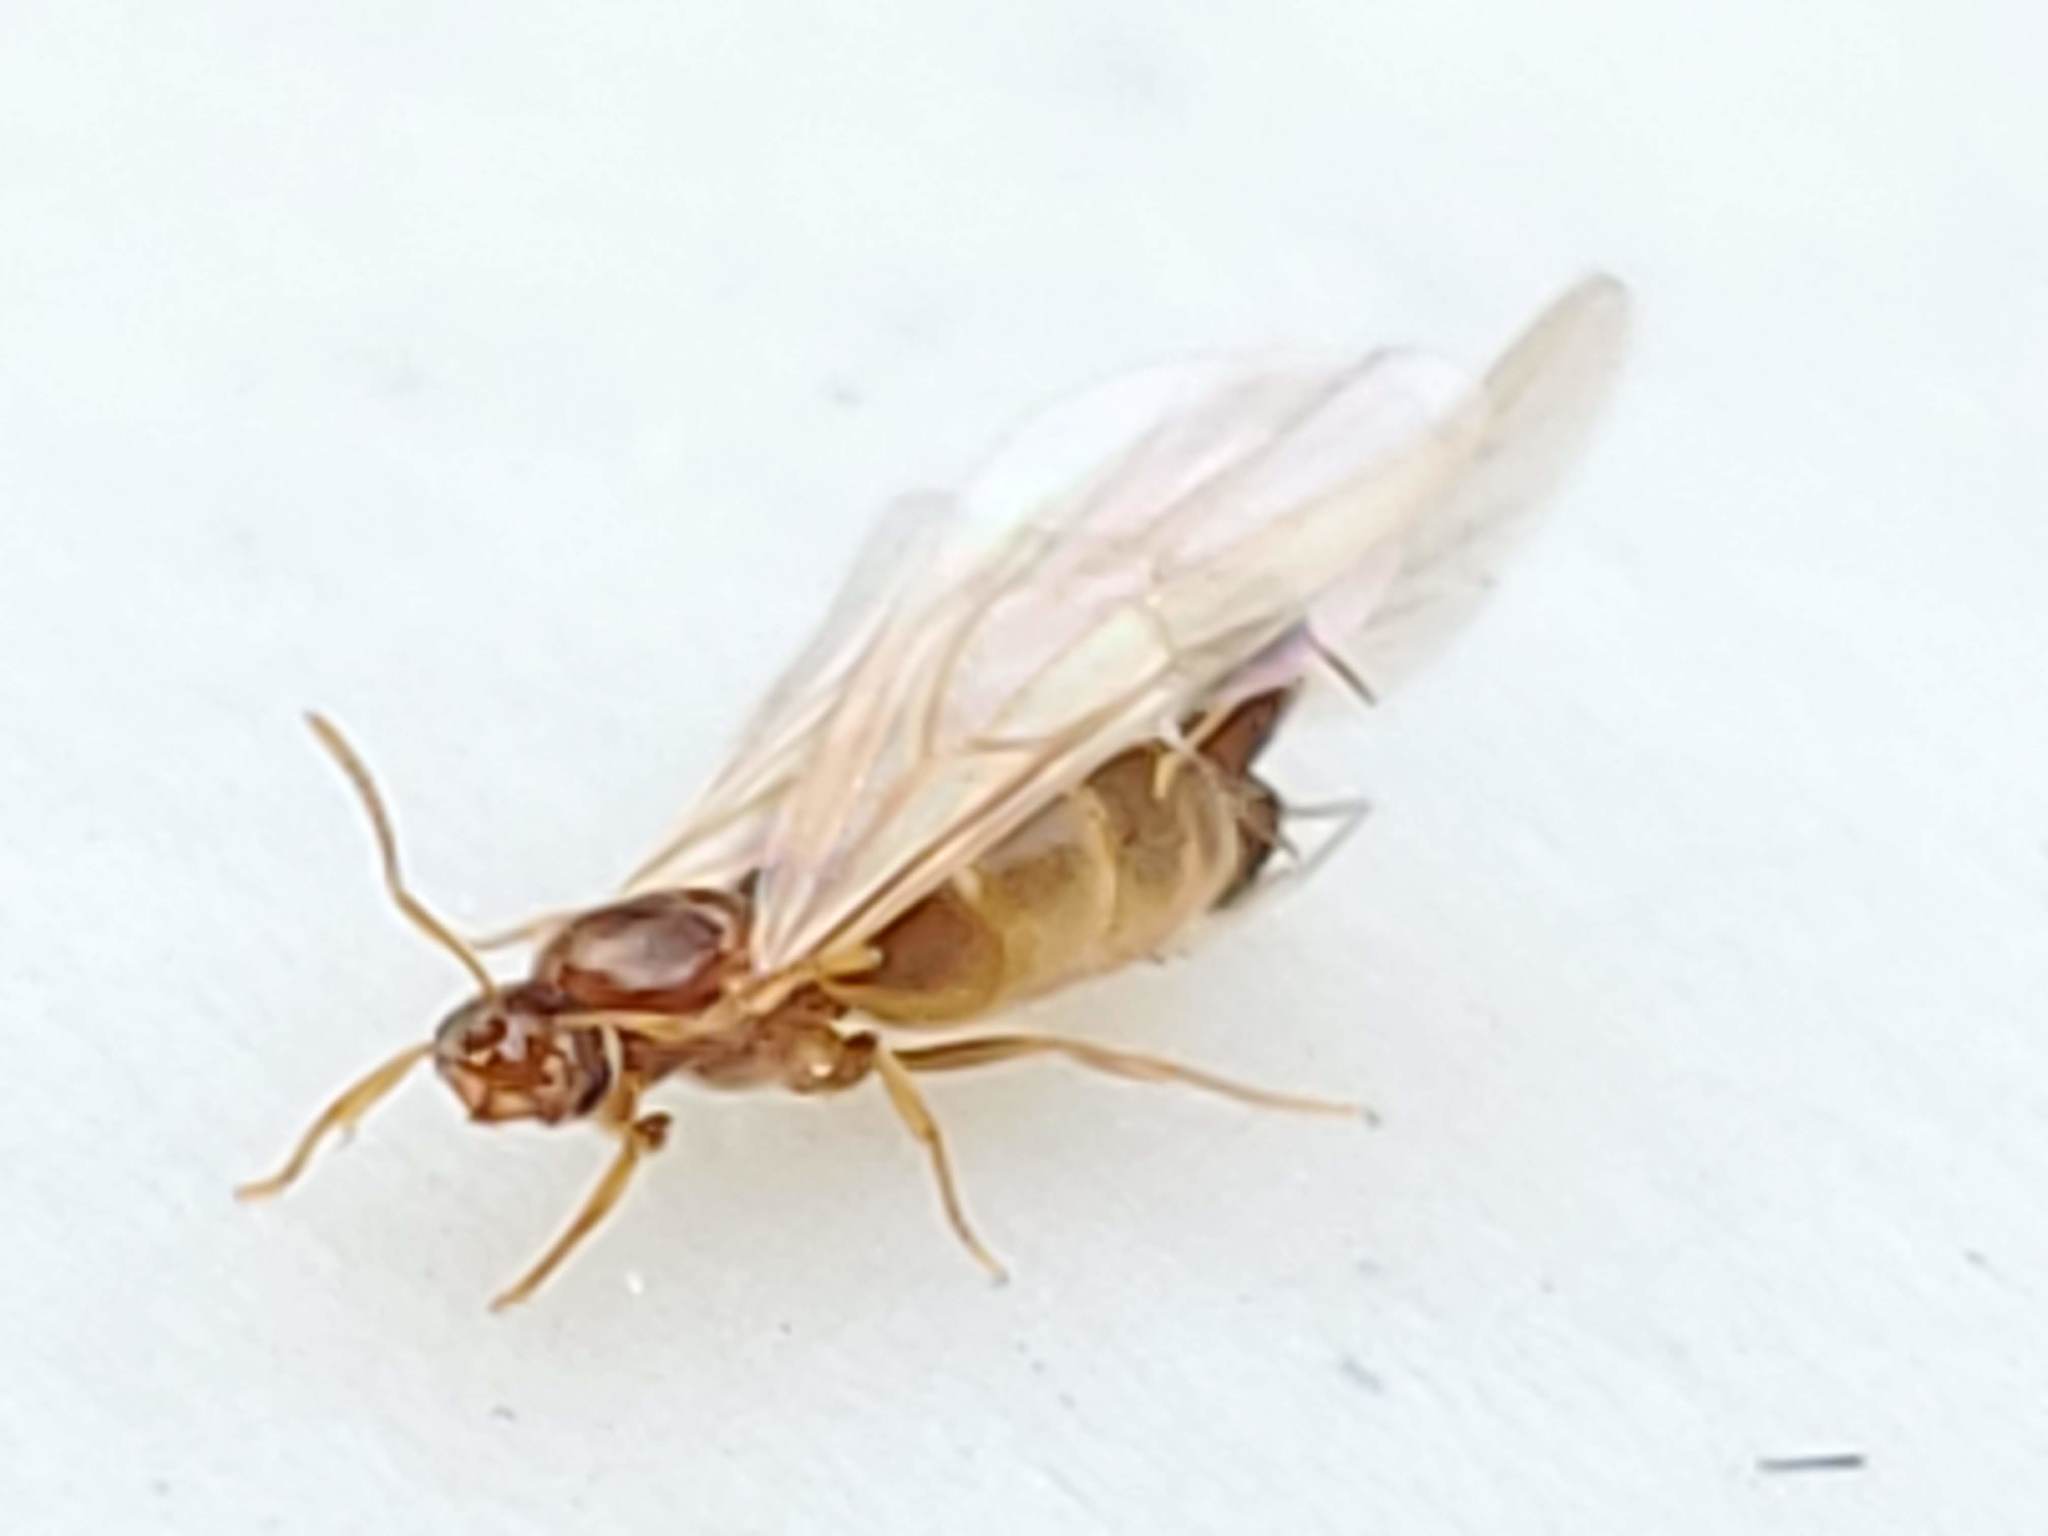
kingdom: Animalia
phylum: Arthropoda
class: Insecta
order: Hymenoptera
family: Formicidae
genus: Brachymyrmex
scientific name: Brachymyrmex depilis
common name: Hairless rover ant
